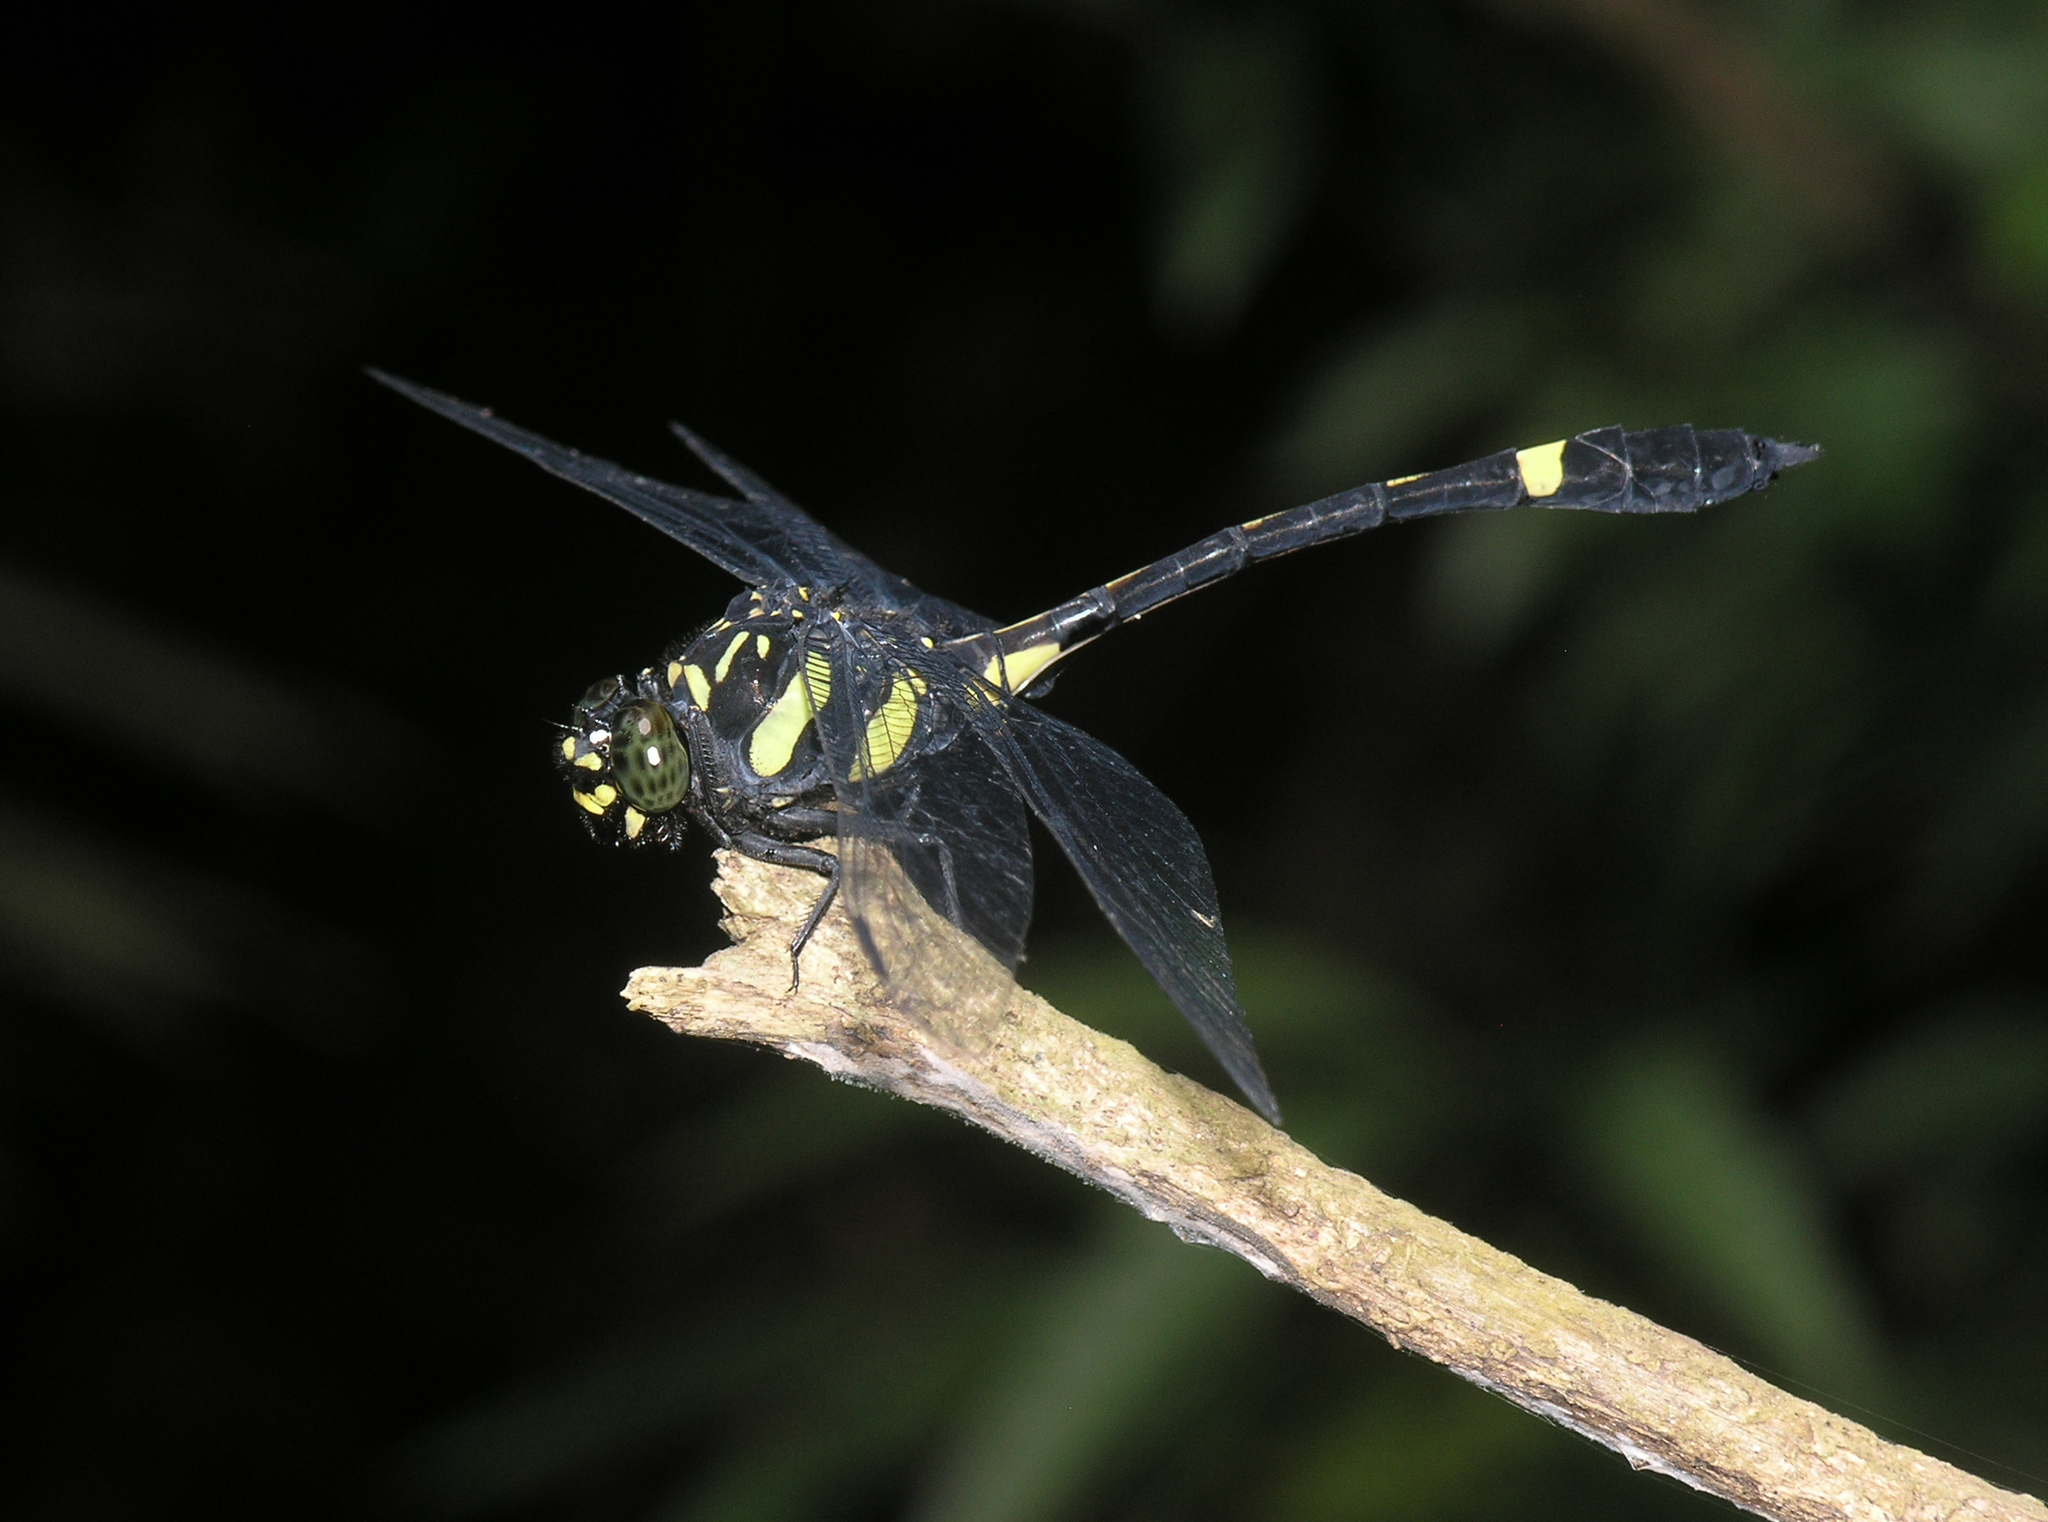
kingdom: Animalia
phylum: Arthropoda
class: Insecta
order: Odonata
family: Gomphidae
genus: Gomphidictinus
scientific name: Gomphidictinus perakensis
